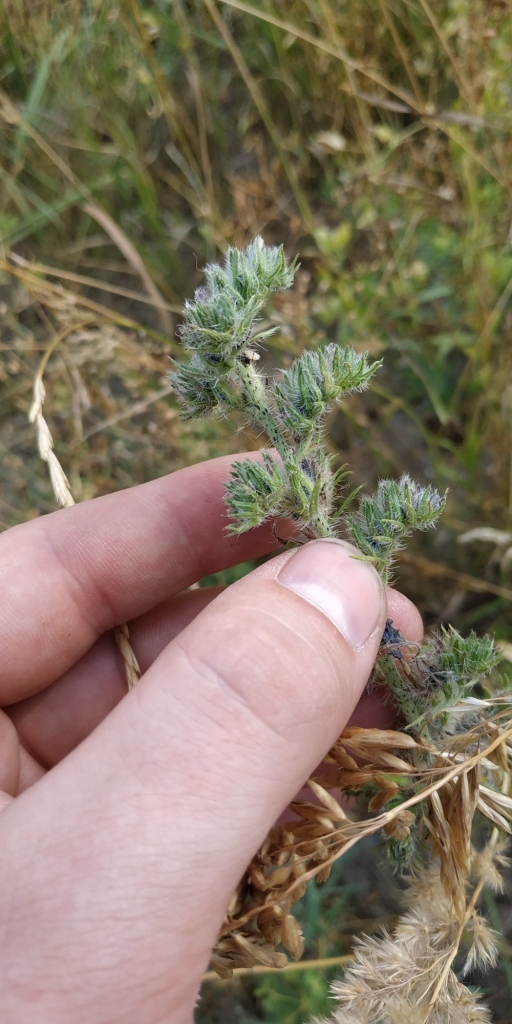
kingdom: Plantae
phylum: Tracheophyta
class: Magnoliopsida
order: Boraginales
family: Boraginaceae
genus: Echium
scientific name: Echium vulgare
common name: Common viper's bugloss
